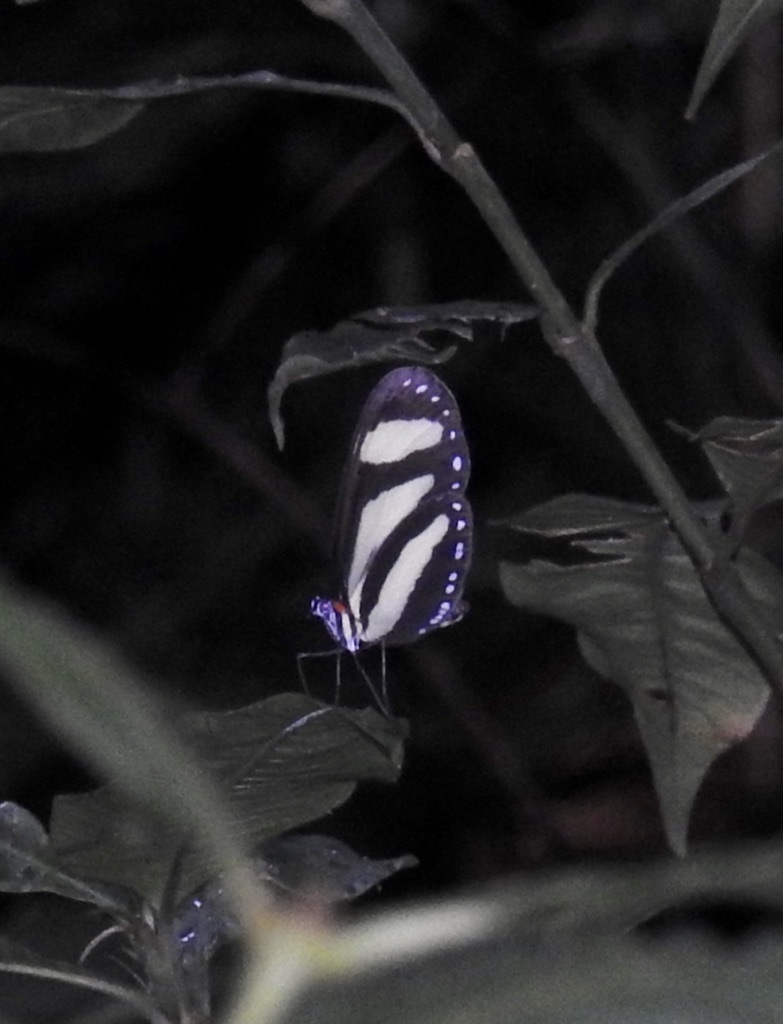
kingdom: Animalia
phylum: Arthropoda
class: Insecta
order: Lepidoptera
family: Nymphalidae
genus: Aeria
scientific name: Aeria eurimedia
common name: Banded tigerwing
